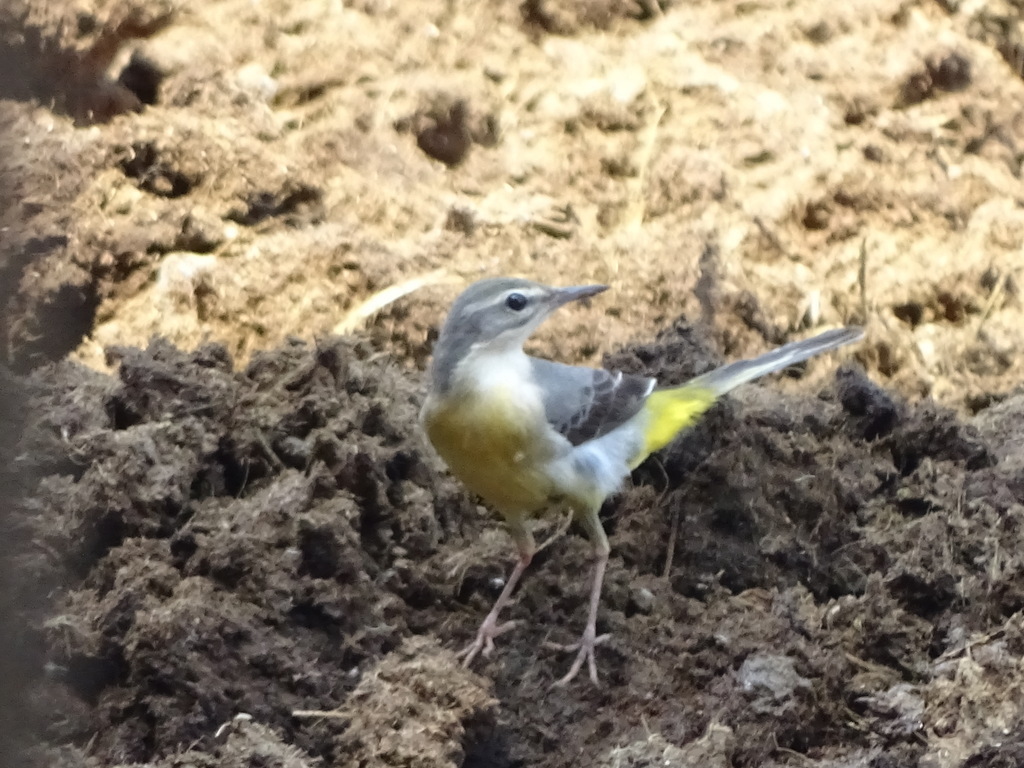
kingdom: Animalia
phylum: Chordata
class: Aves
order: Passeriformes
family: Motacillidae
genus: Motacilla
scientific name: Motacilla cinerea
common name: Grey wagtail
